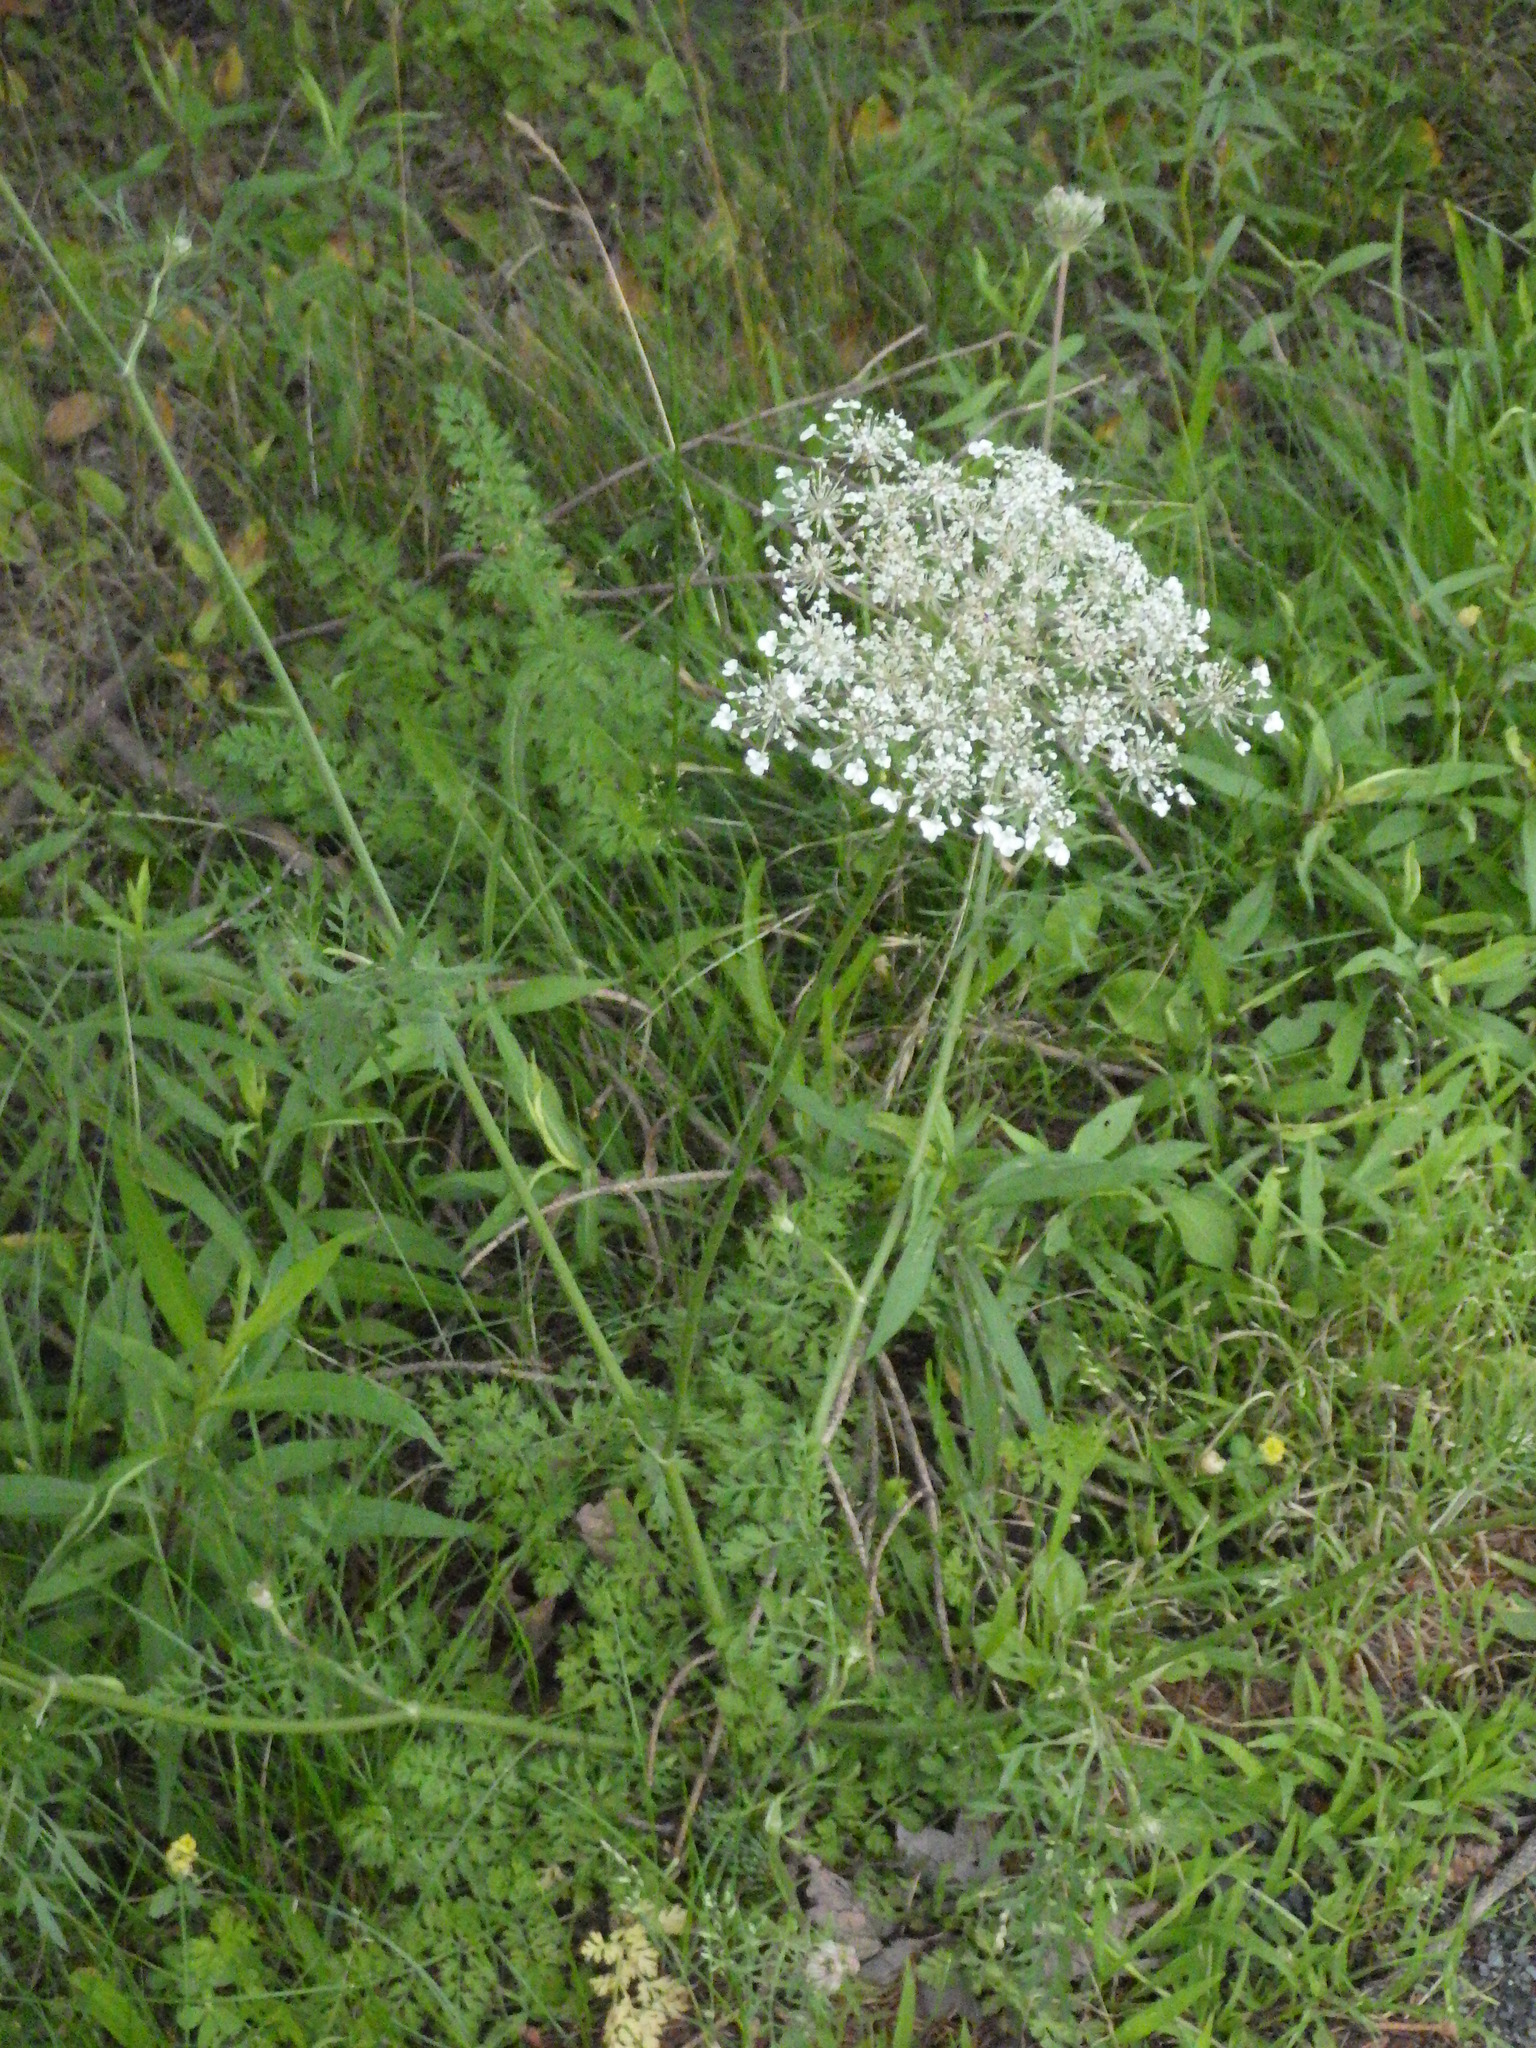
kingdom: Plantae
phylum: Tracheophyta
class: Magnoliopsida
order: Apiales
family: Apiaceae
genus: Daucus
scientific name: Daucus carota
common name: Wild carrot
